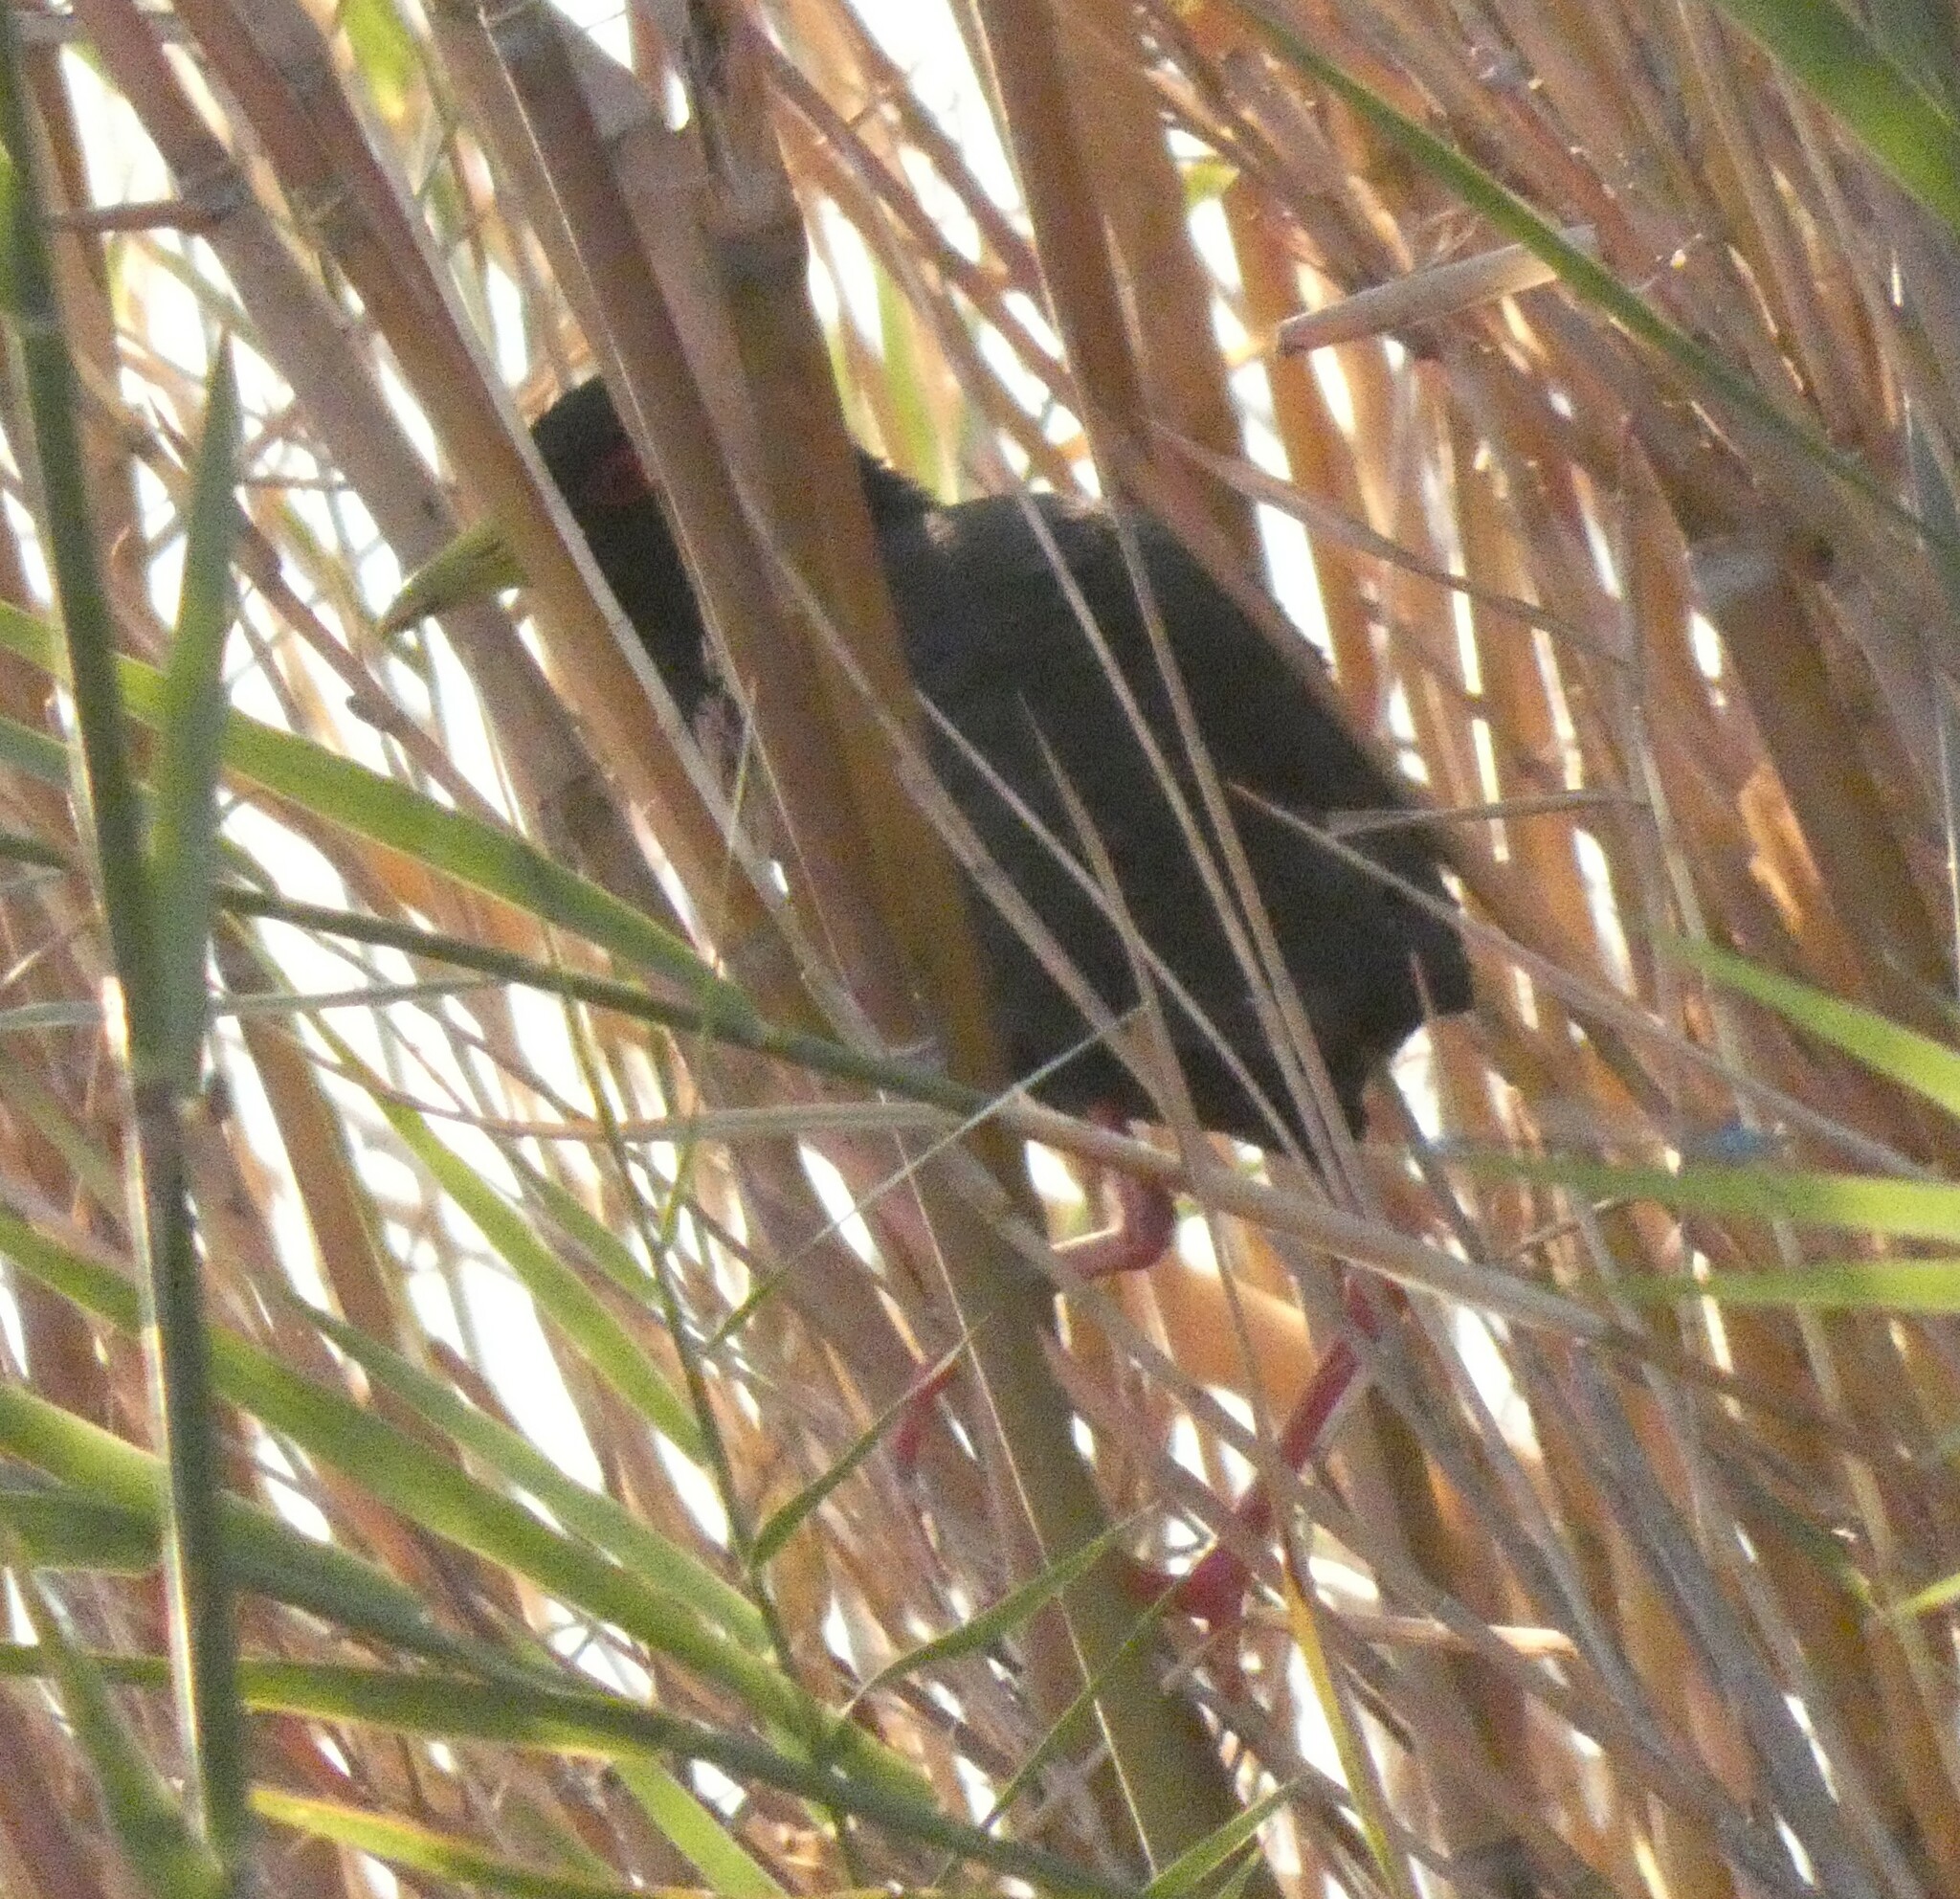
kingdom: Animalia
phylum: Chordata
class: Aves
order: Gruiformes
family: Rallidae
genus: Amaurornis
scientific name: Amaurornis flavirostra
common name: Black crake
